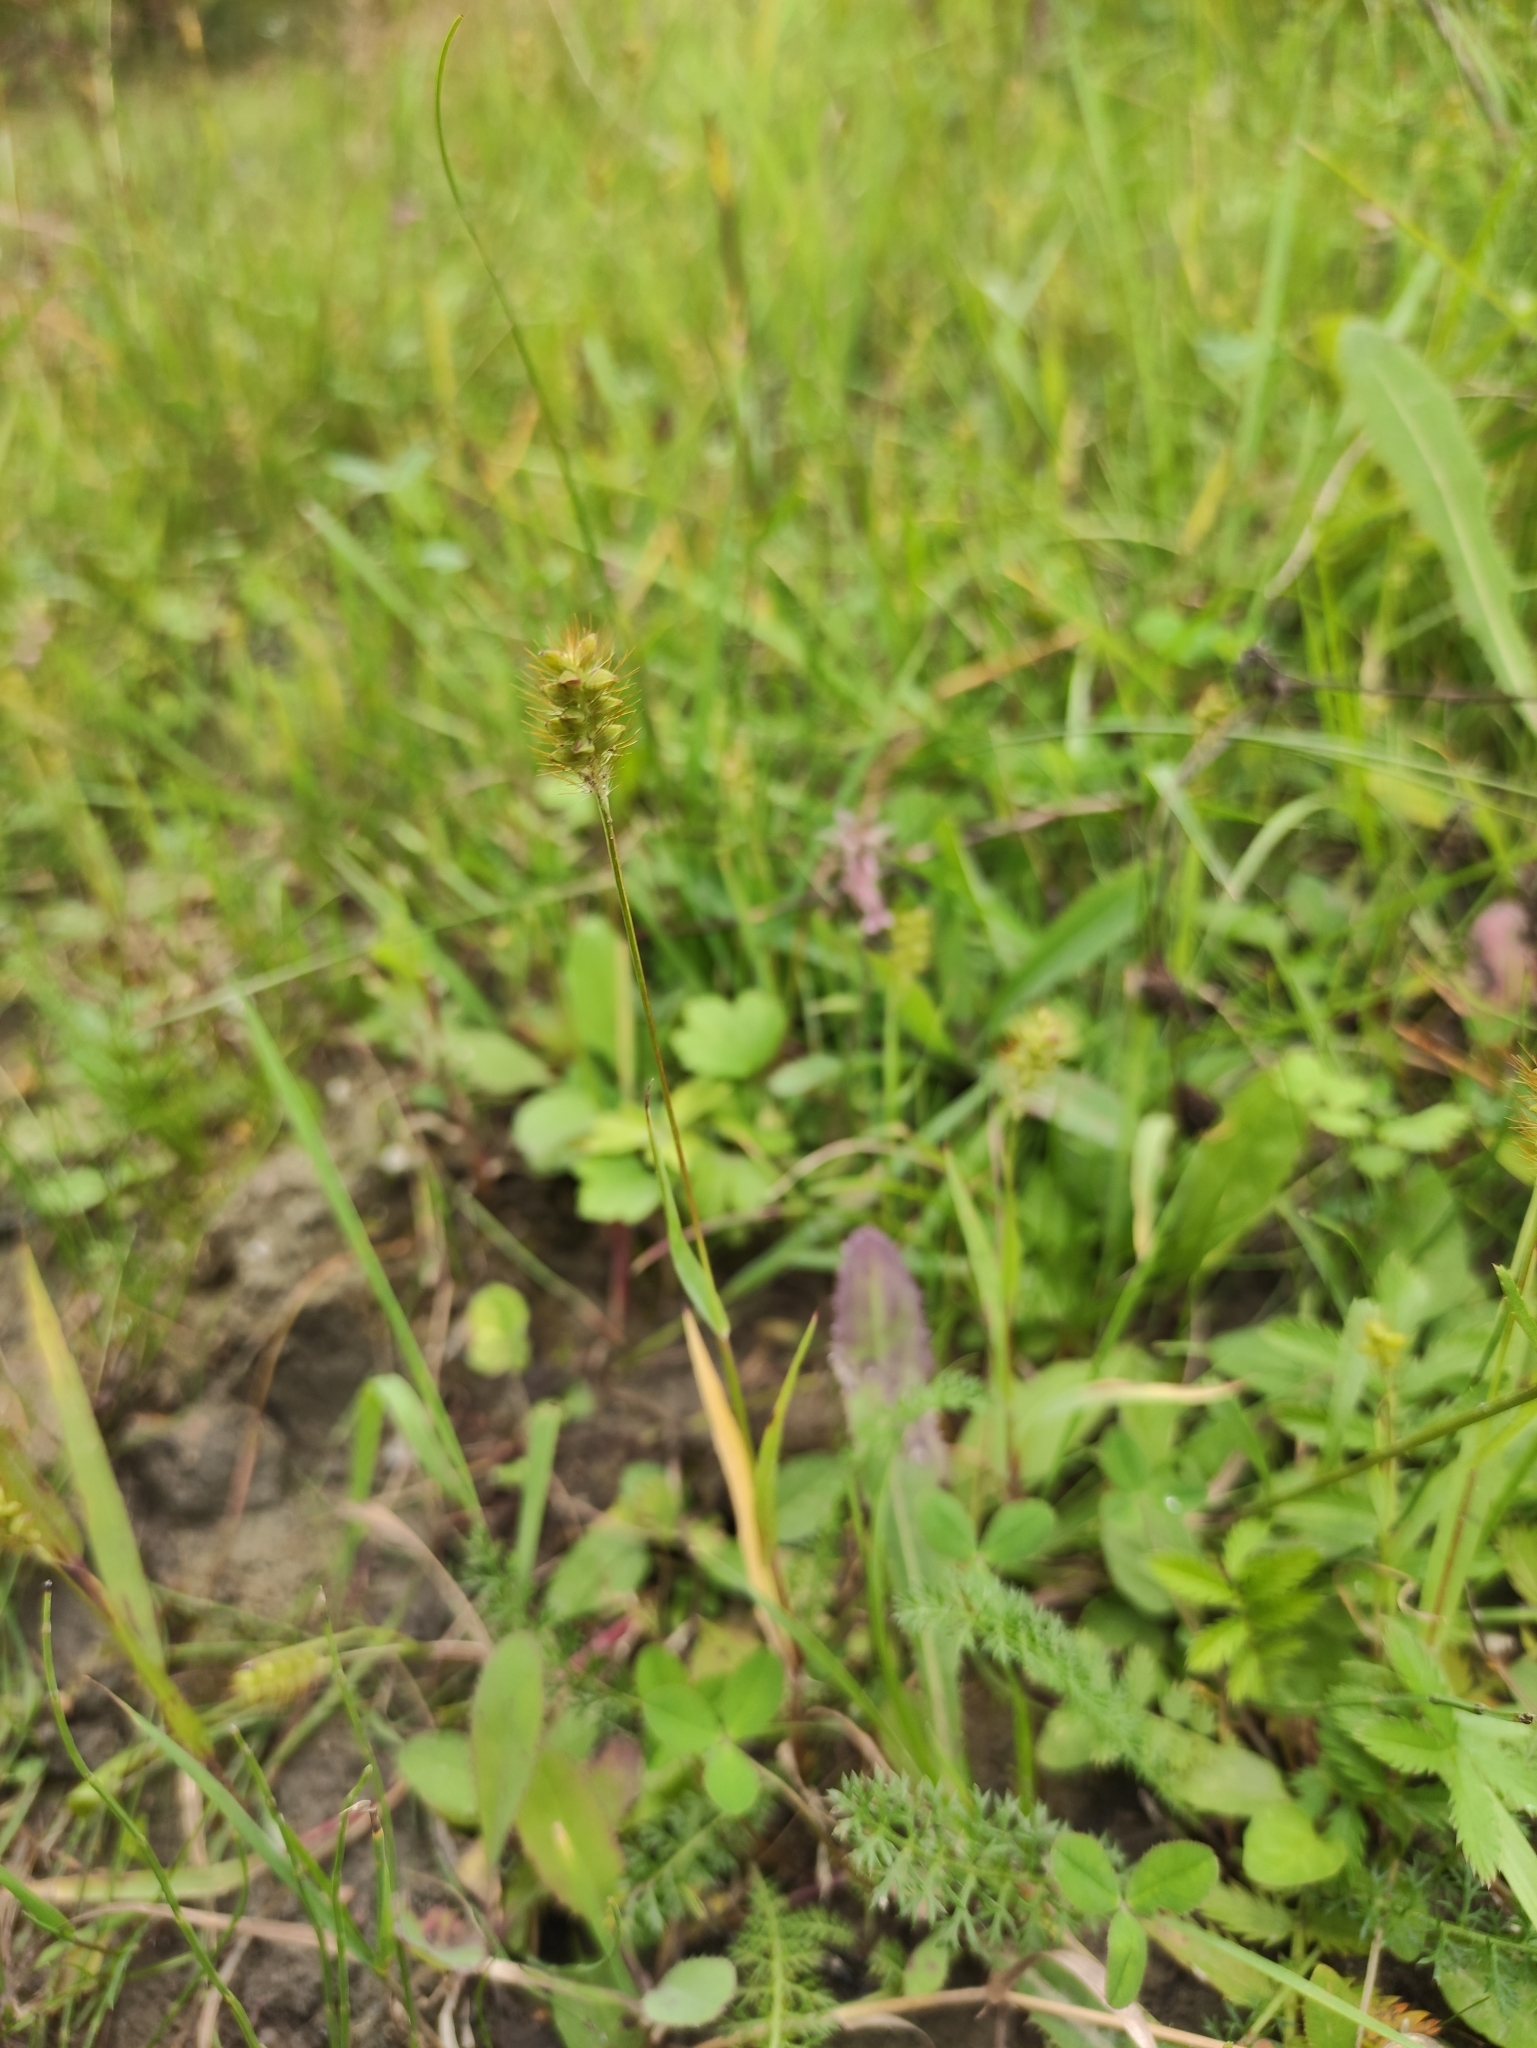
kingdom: Plantae
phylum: Tracheophyta
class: Liliopsida
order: Poales
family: Poaceae
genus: Setaria
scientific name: Setaria pumila
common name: Yellow bristle-grass
